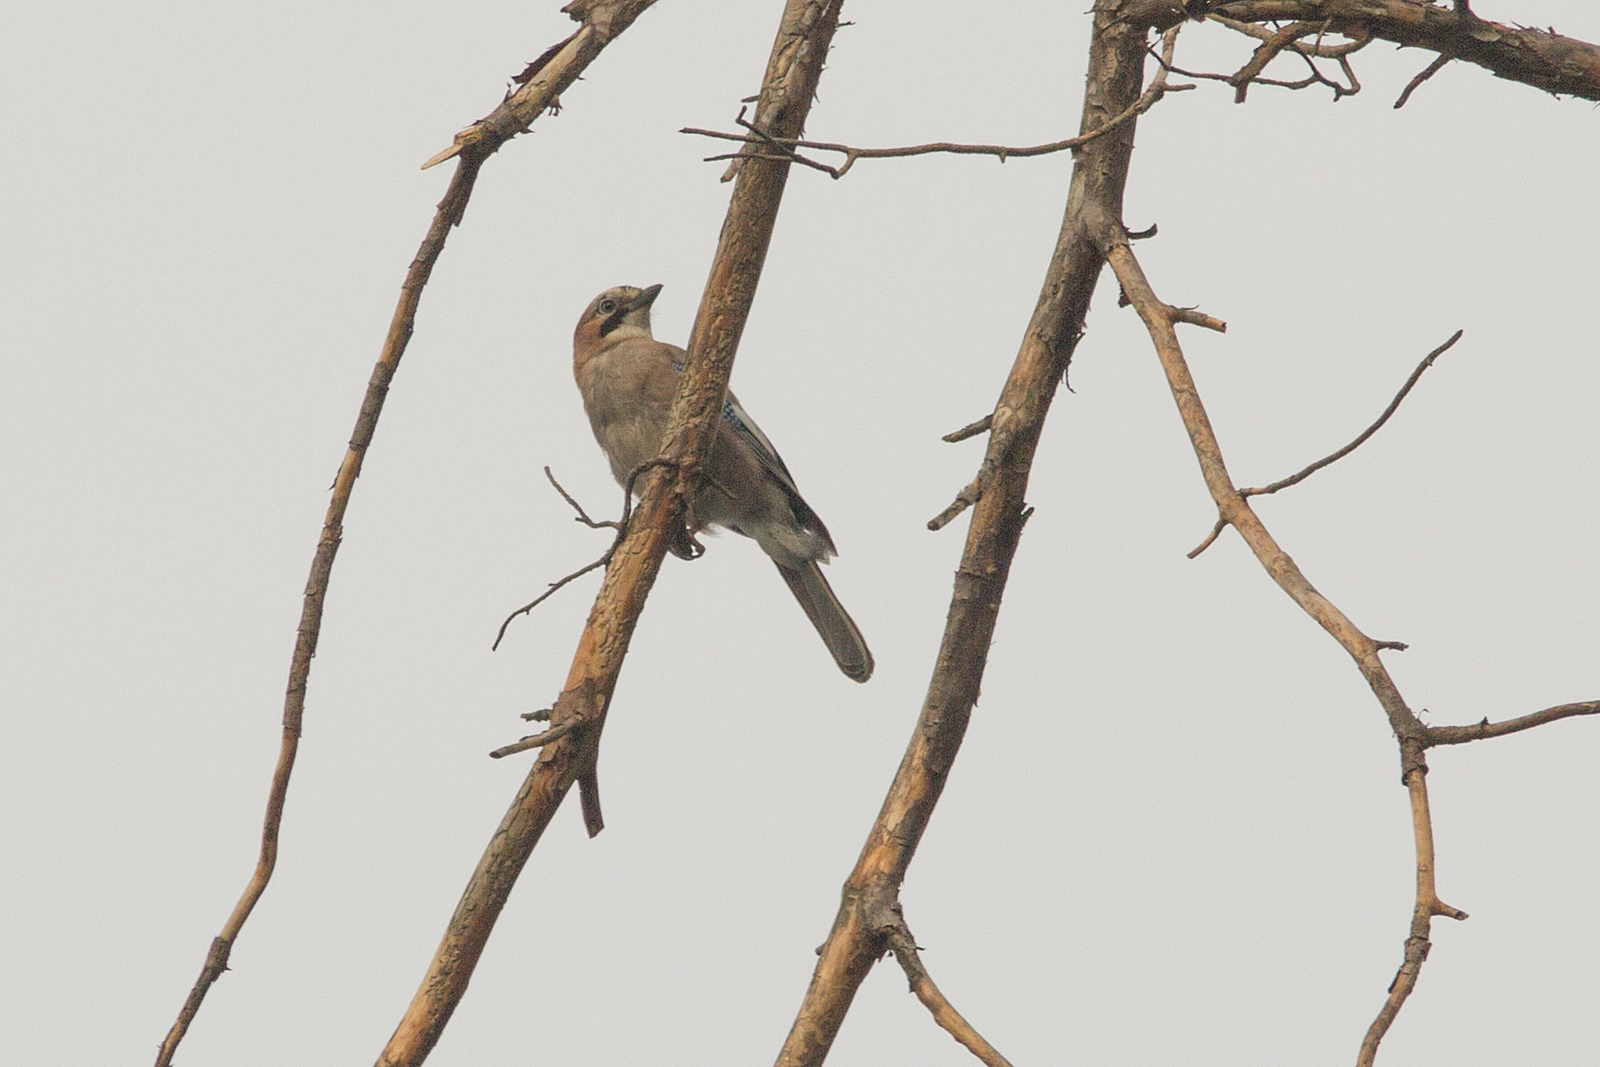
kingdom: Animalia
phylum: Chordata
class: Aves
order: Passeriformes
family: Corvidae
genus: Garrulus
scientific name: Garrulus glandarius
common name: Eurasian jay
